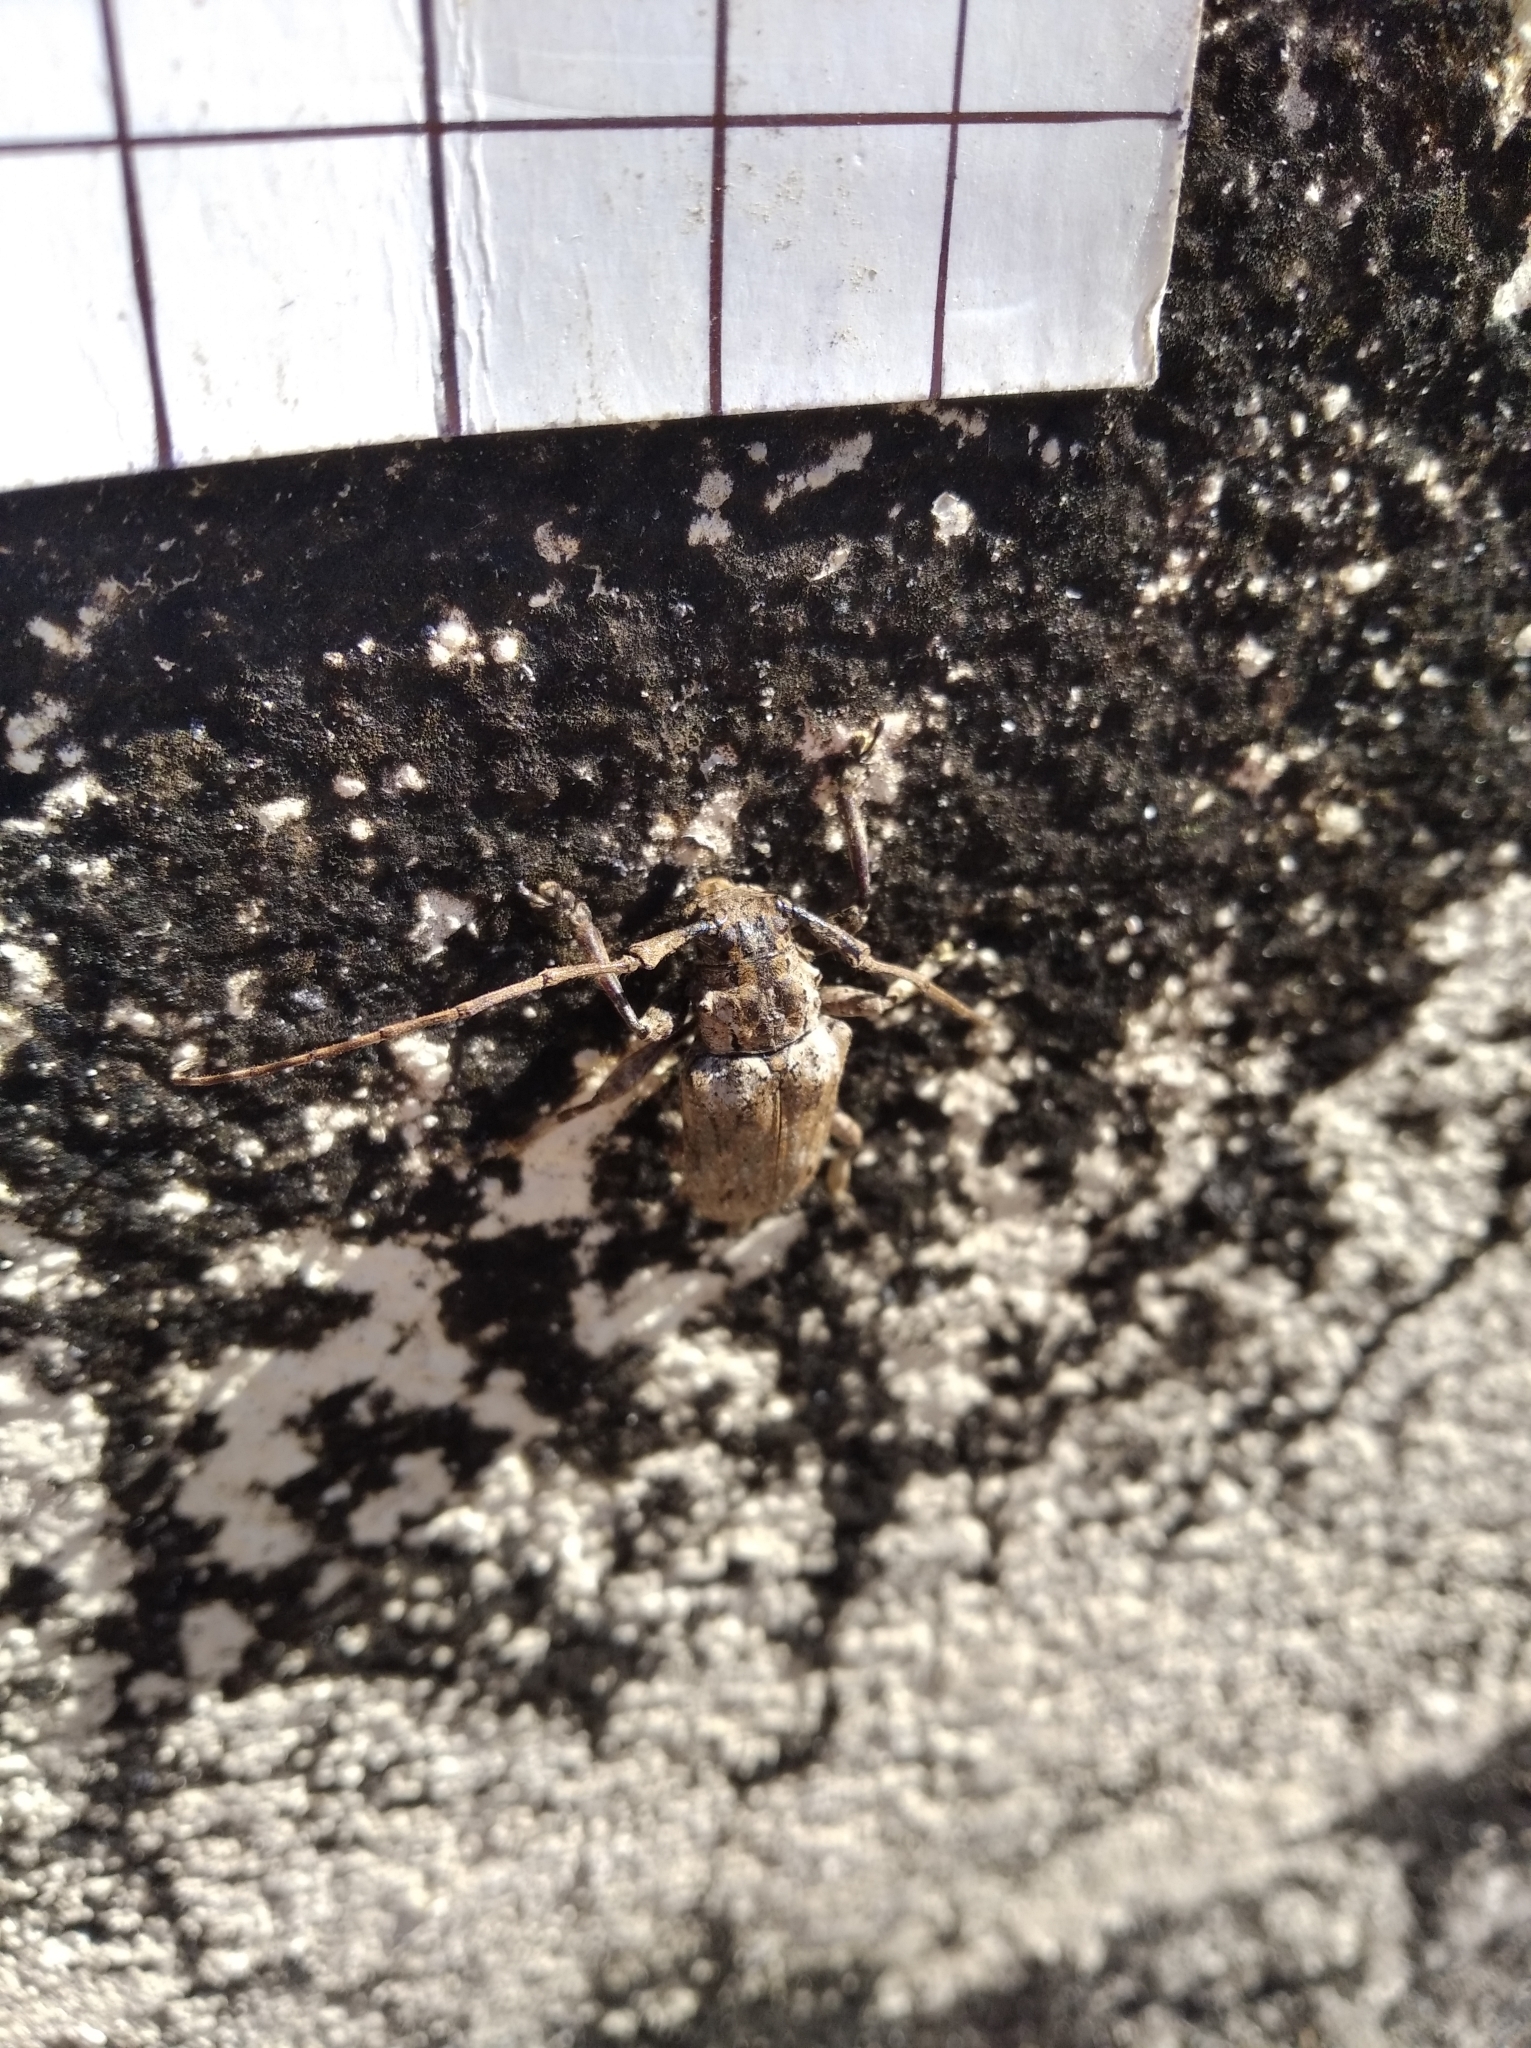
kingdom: Animalia
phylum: Arthropoda
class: Insecta
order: Coleoptera
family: Cerambycidae
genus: Coptops
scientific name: Coptops aedificator
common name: Long-horned beetle
